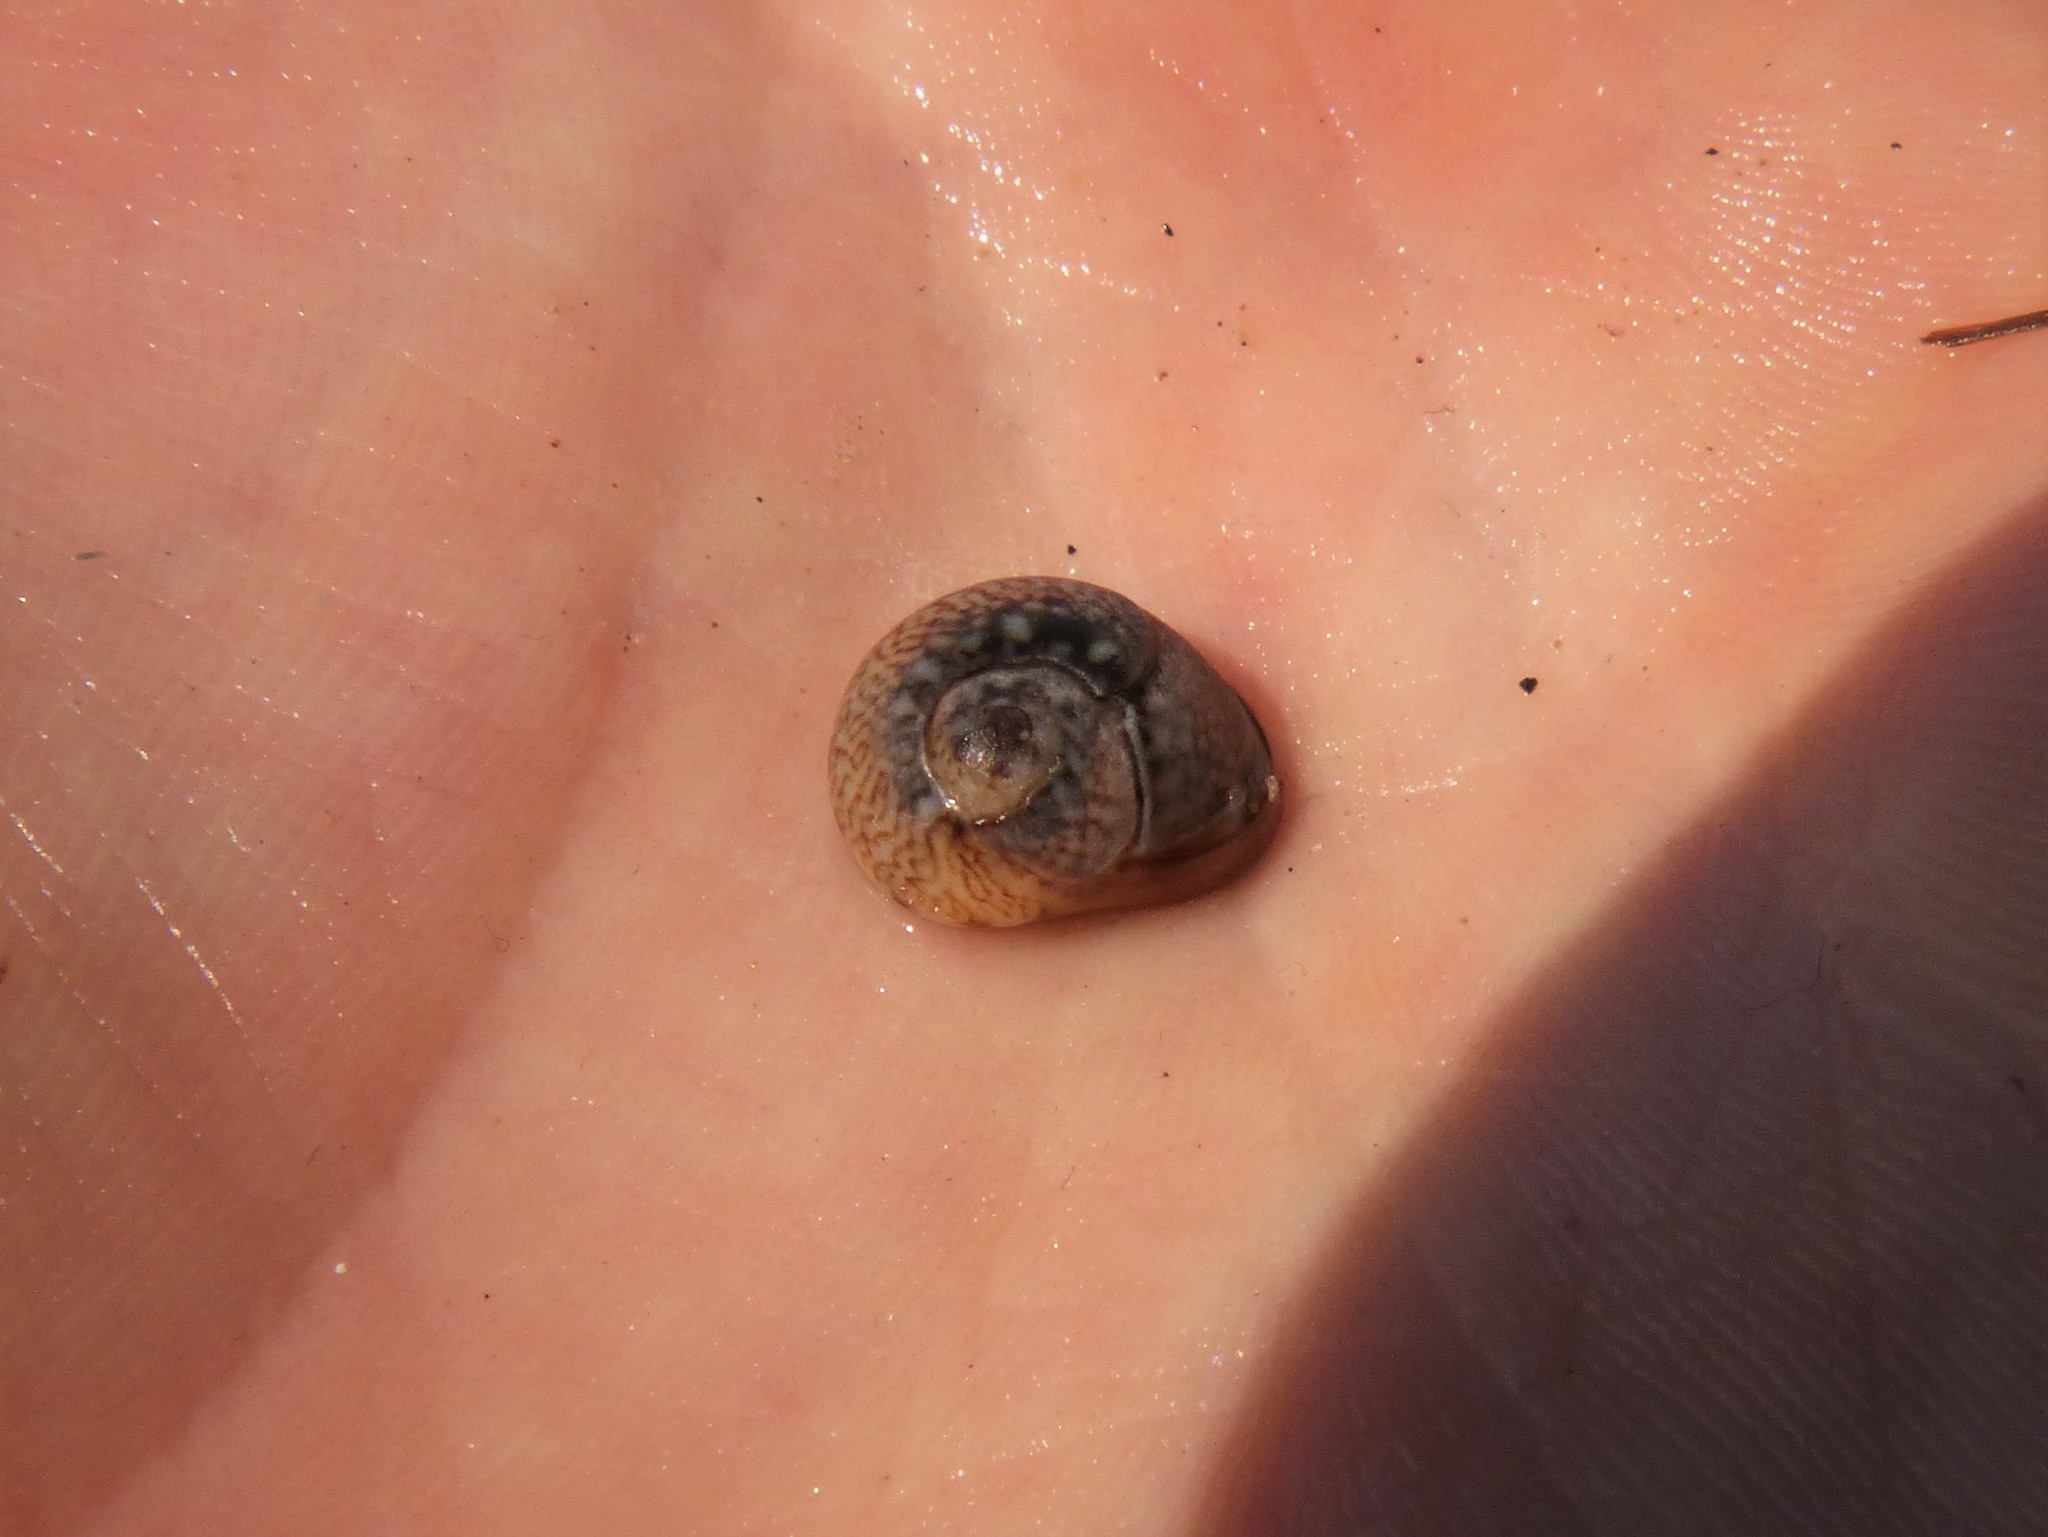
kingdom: Animalia
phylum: Mollusca
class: Gastropoda
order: Neogastropoda
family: Nassariidae
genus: Tritia
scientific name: Tritia neritea
